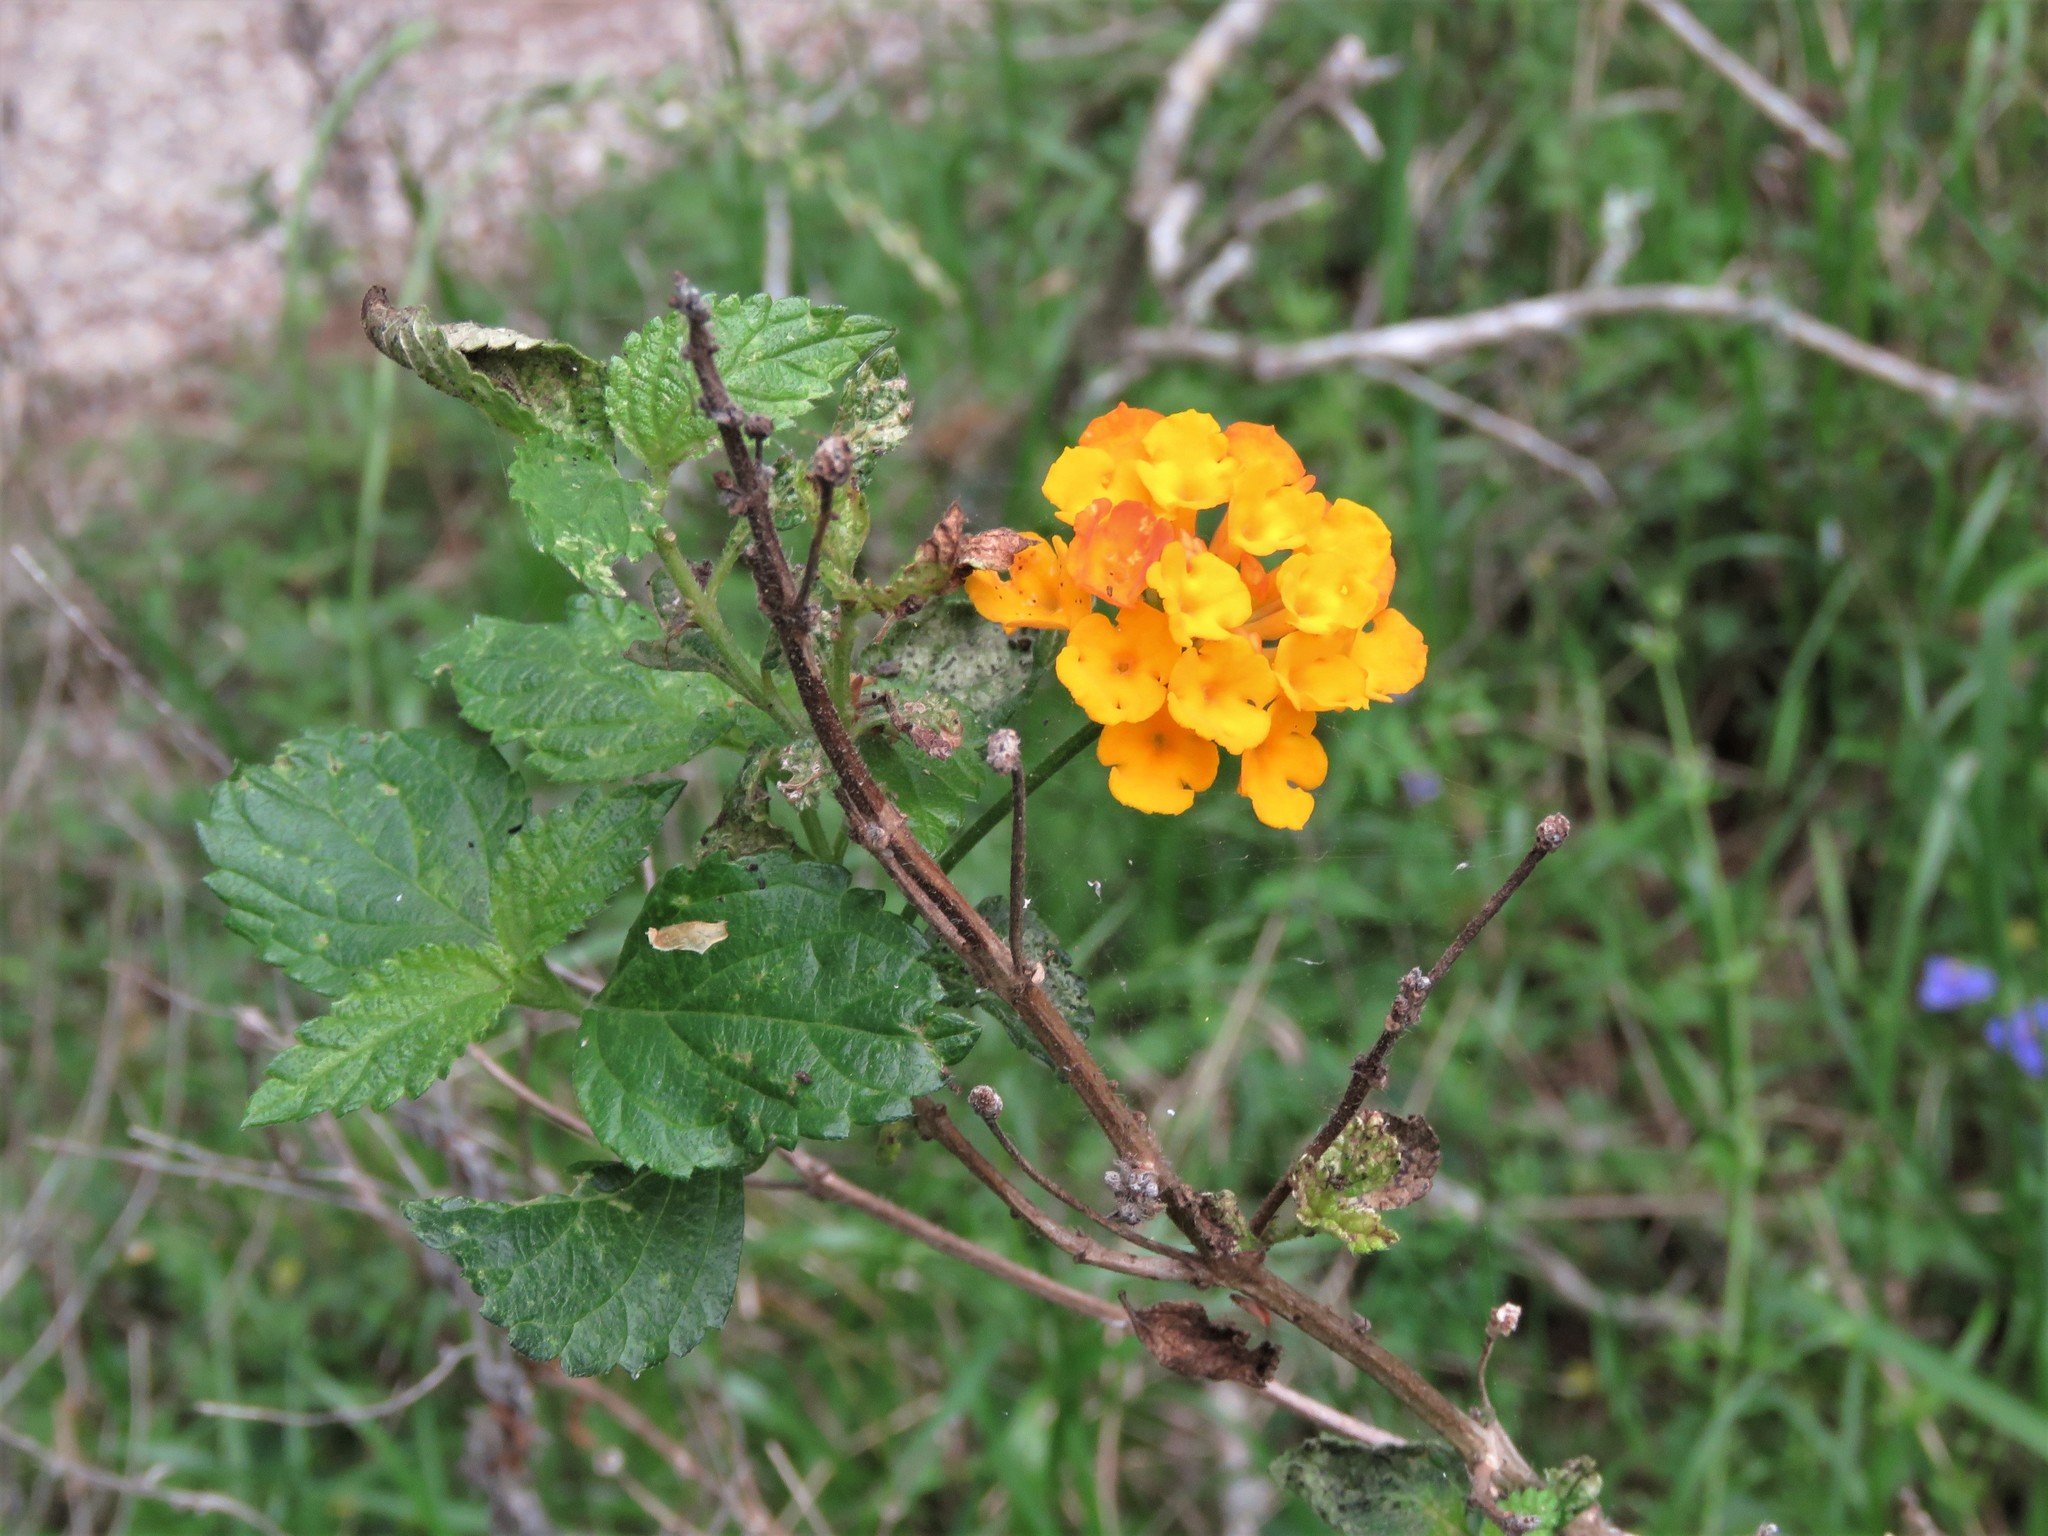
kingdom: Plantae
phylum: Tracheophyta
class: Magnoliopsida
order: Lamiales
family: Verbenaceae
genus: Lantana
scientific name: Lantana camara
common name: Lantana
